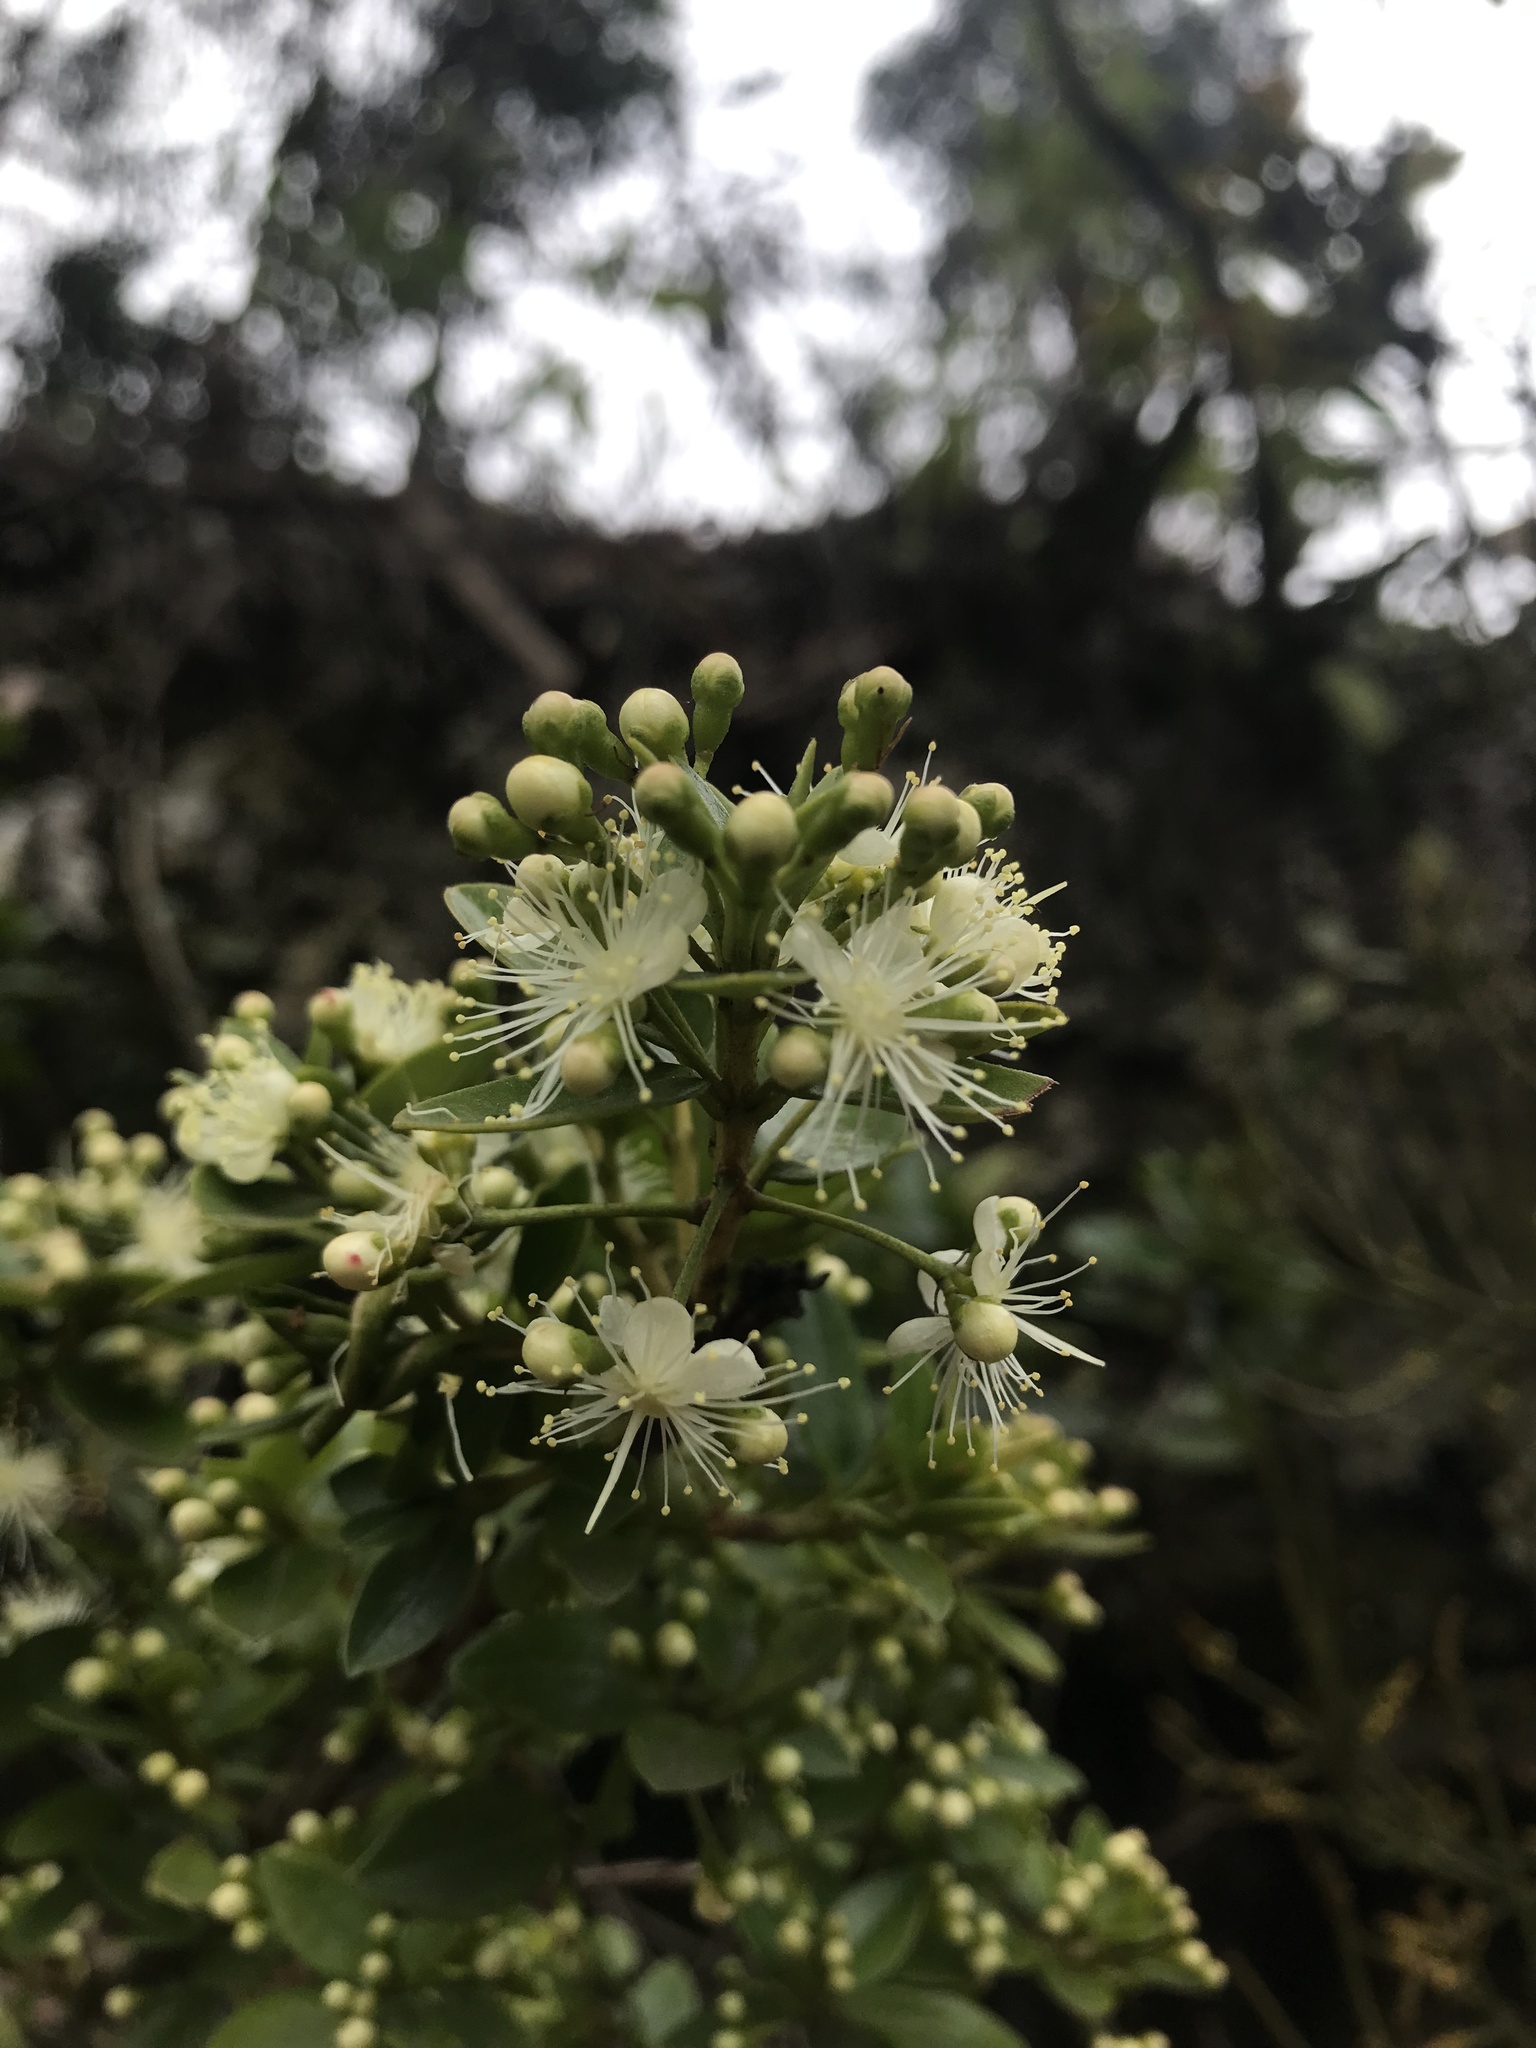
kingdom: Plantae
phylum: Tracheophyta
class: Magnoliopsida
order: Myrtales
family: Myrtaceae
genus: Myrcianthes
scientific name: Myrcianthes leucoxyla
